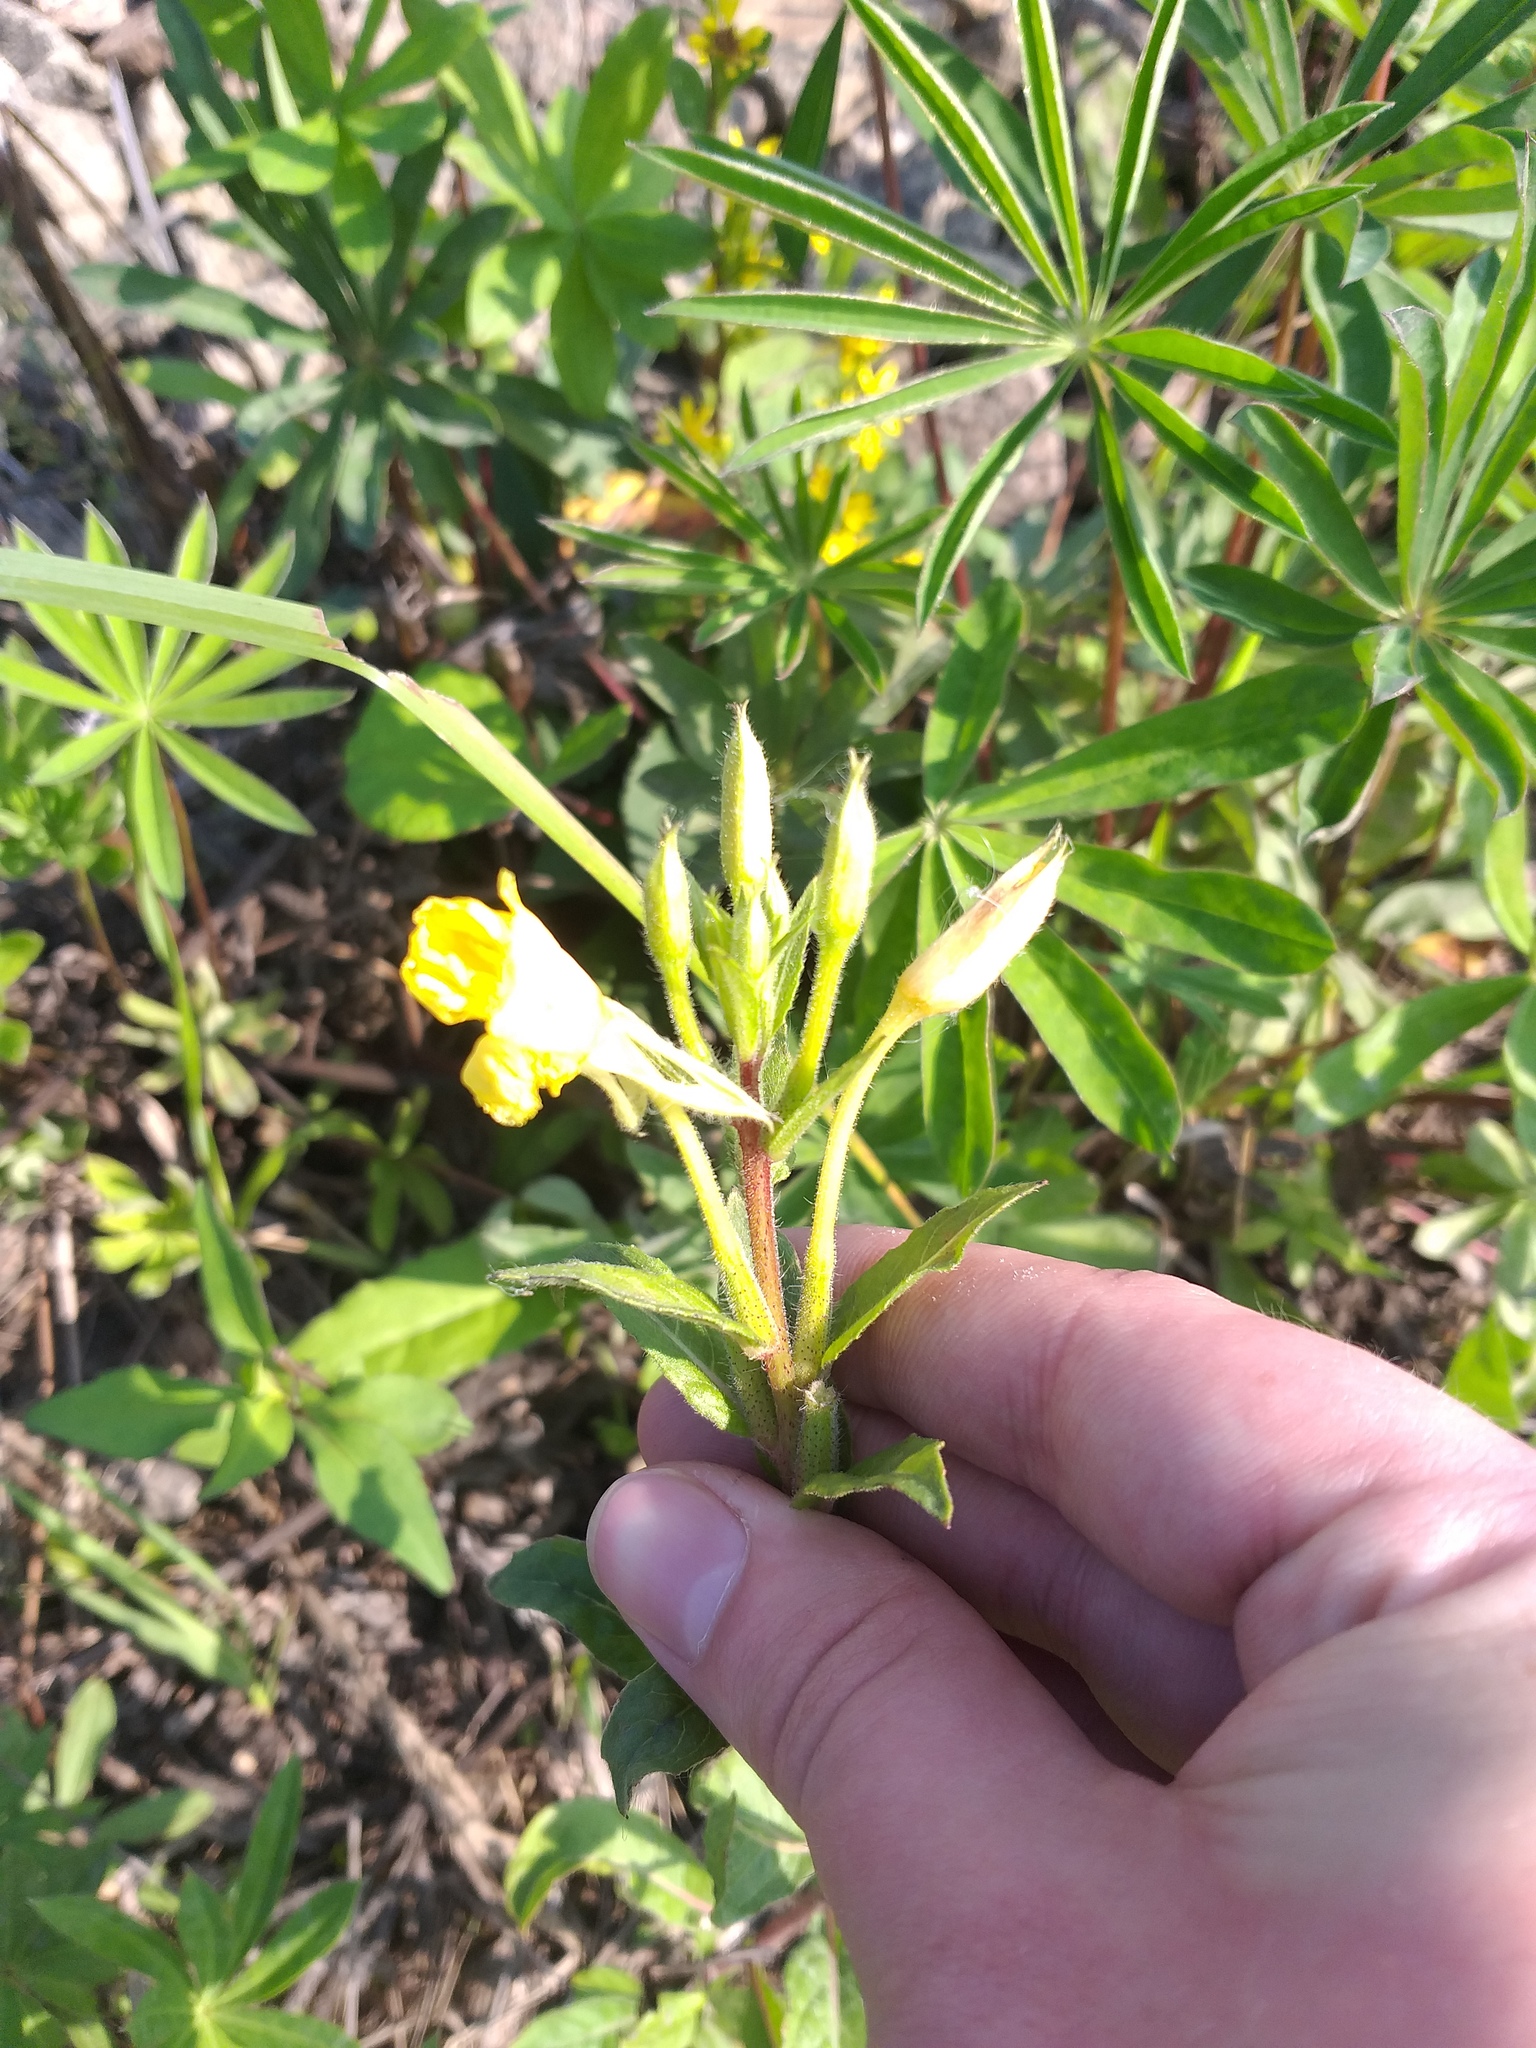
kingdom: Plantae
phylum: Tracheophyta
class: Magnoliopsida
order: Myrtales
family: Onagraceae
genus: Oenothera
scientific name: Oenothera rubricaulis
